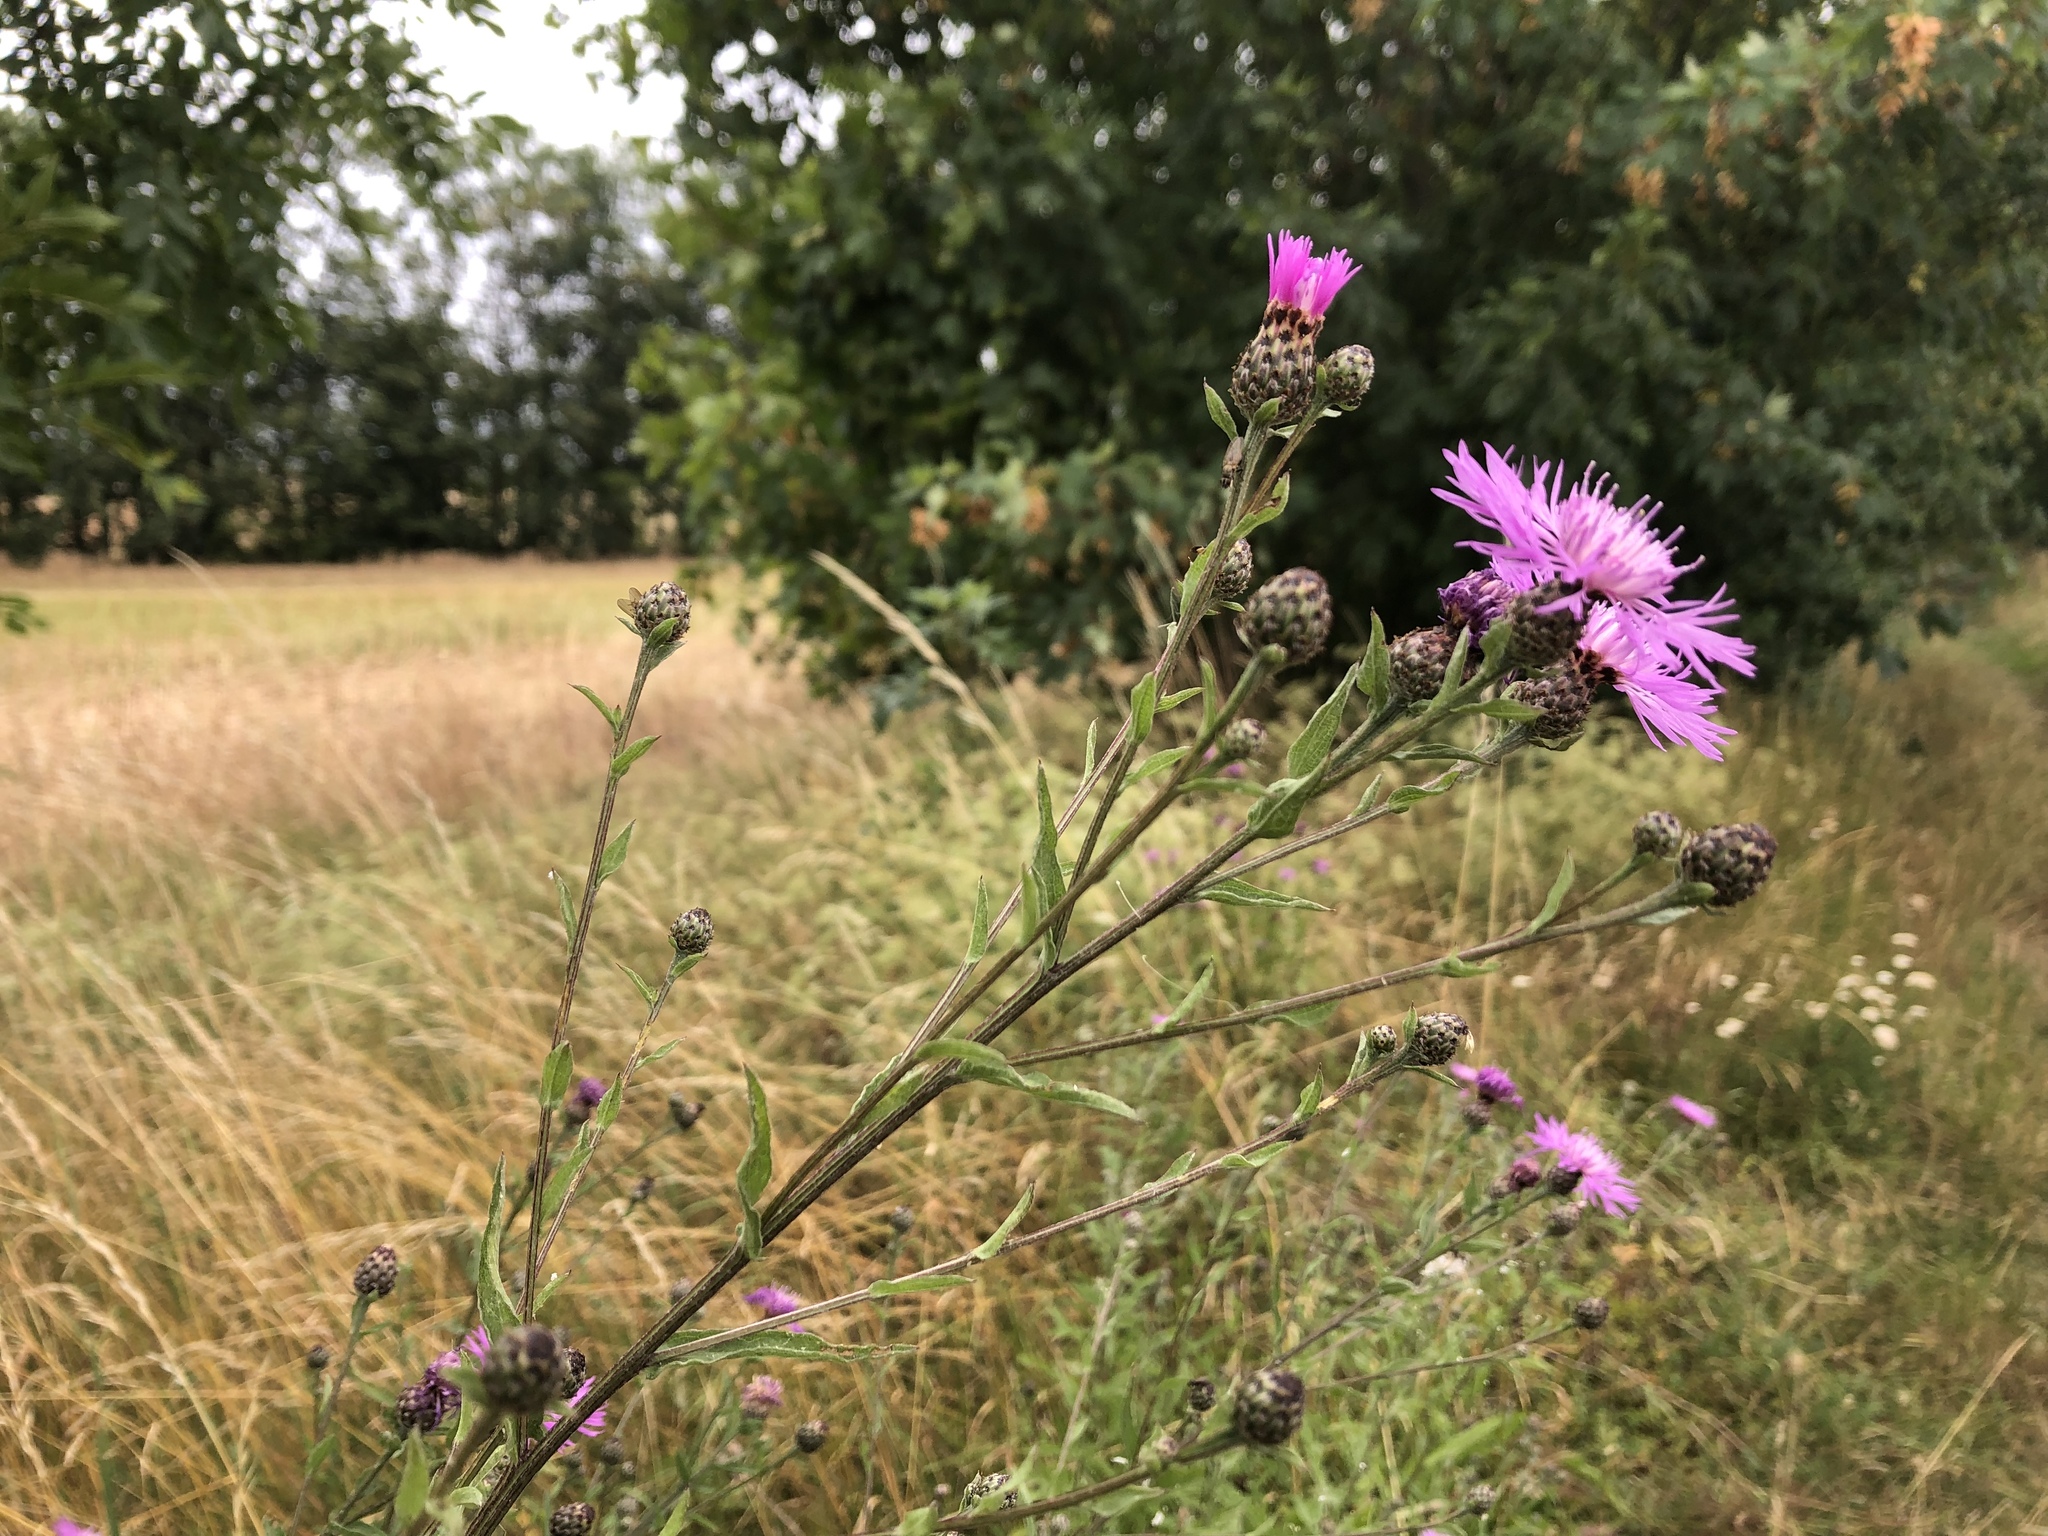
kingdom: Plantae
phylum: Tracheophyta
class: Magnoliopsida
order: Asterales
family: Asteraceae
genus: Centaurea
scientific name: Centaurea nigrescens
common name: Tyrol knapweed
